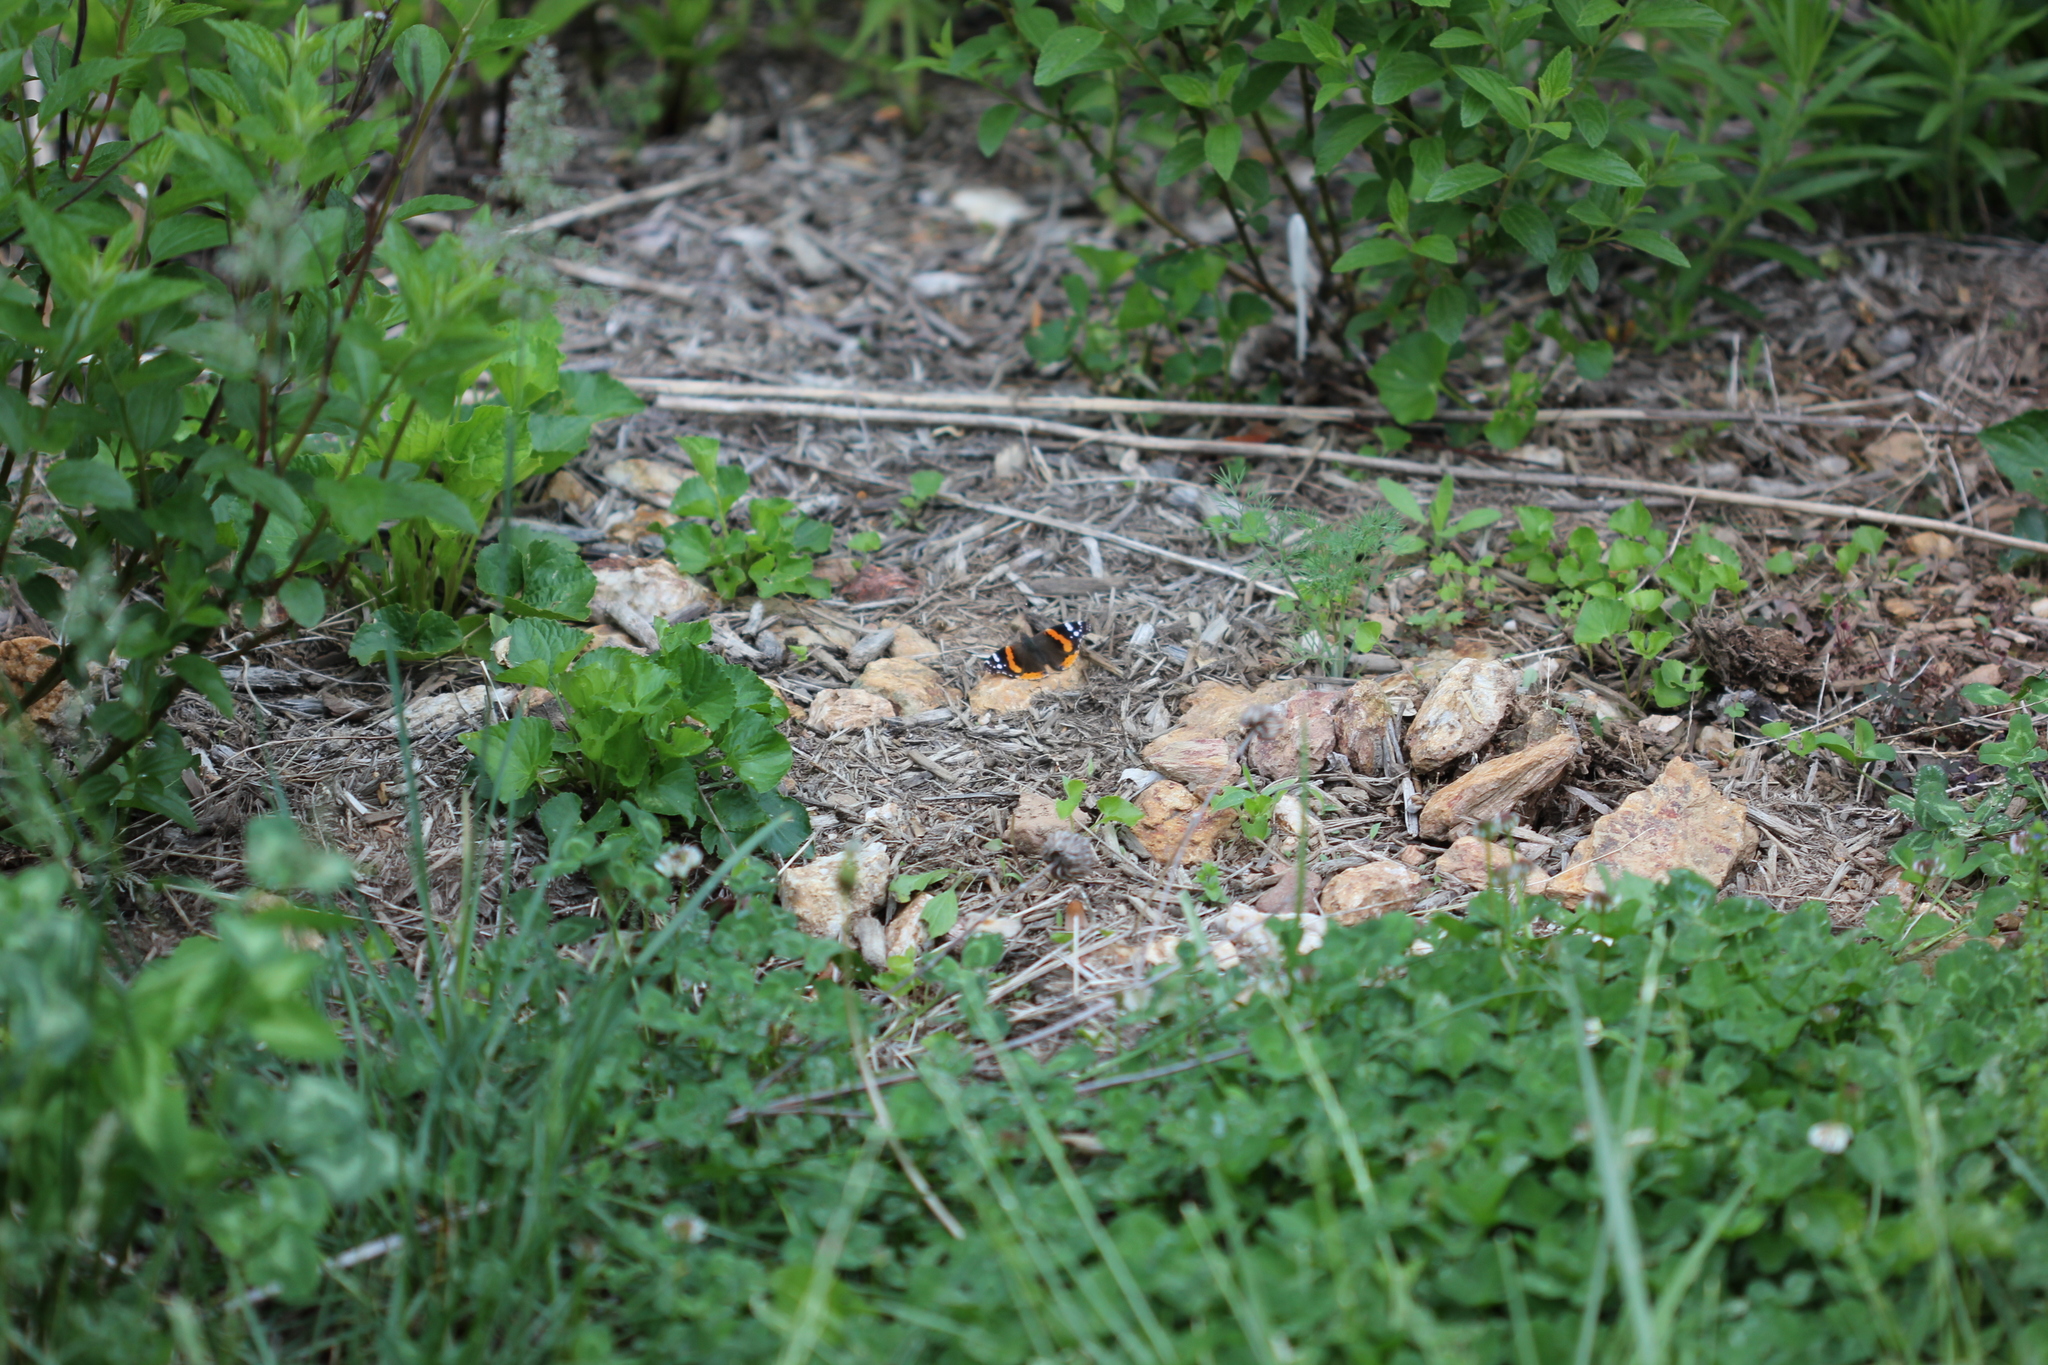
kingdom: Animalia
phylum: Arthropoda
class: Insecta
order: Lepidoptera
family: Nymphalidae
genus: Vanessa
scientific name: Vanessa atalanta
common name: Red admiral
